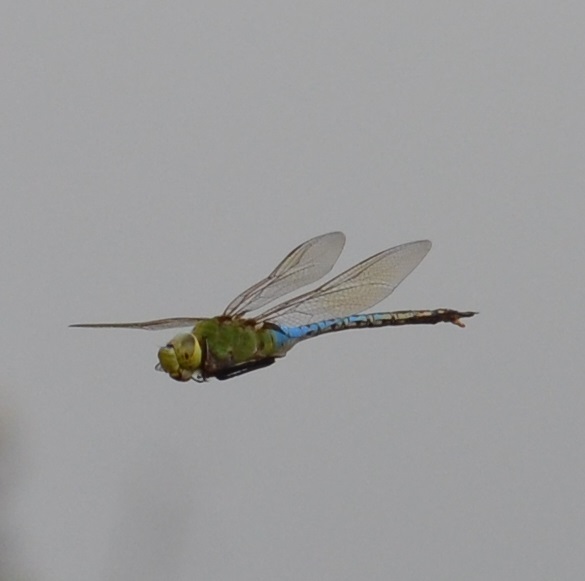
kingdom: Animalia
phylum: Arthropoda
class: Insecta
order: Odonata
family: Aeshnidae
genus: Anax
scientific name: Anax junius
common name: Common green darner
